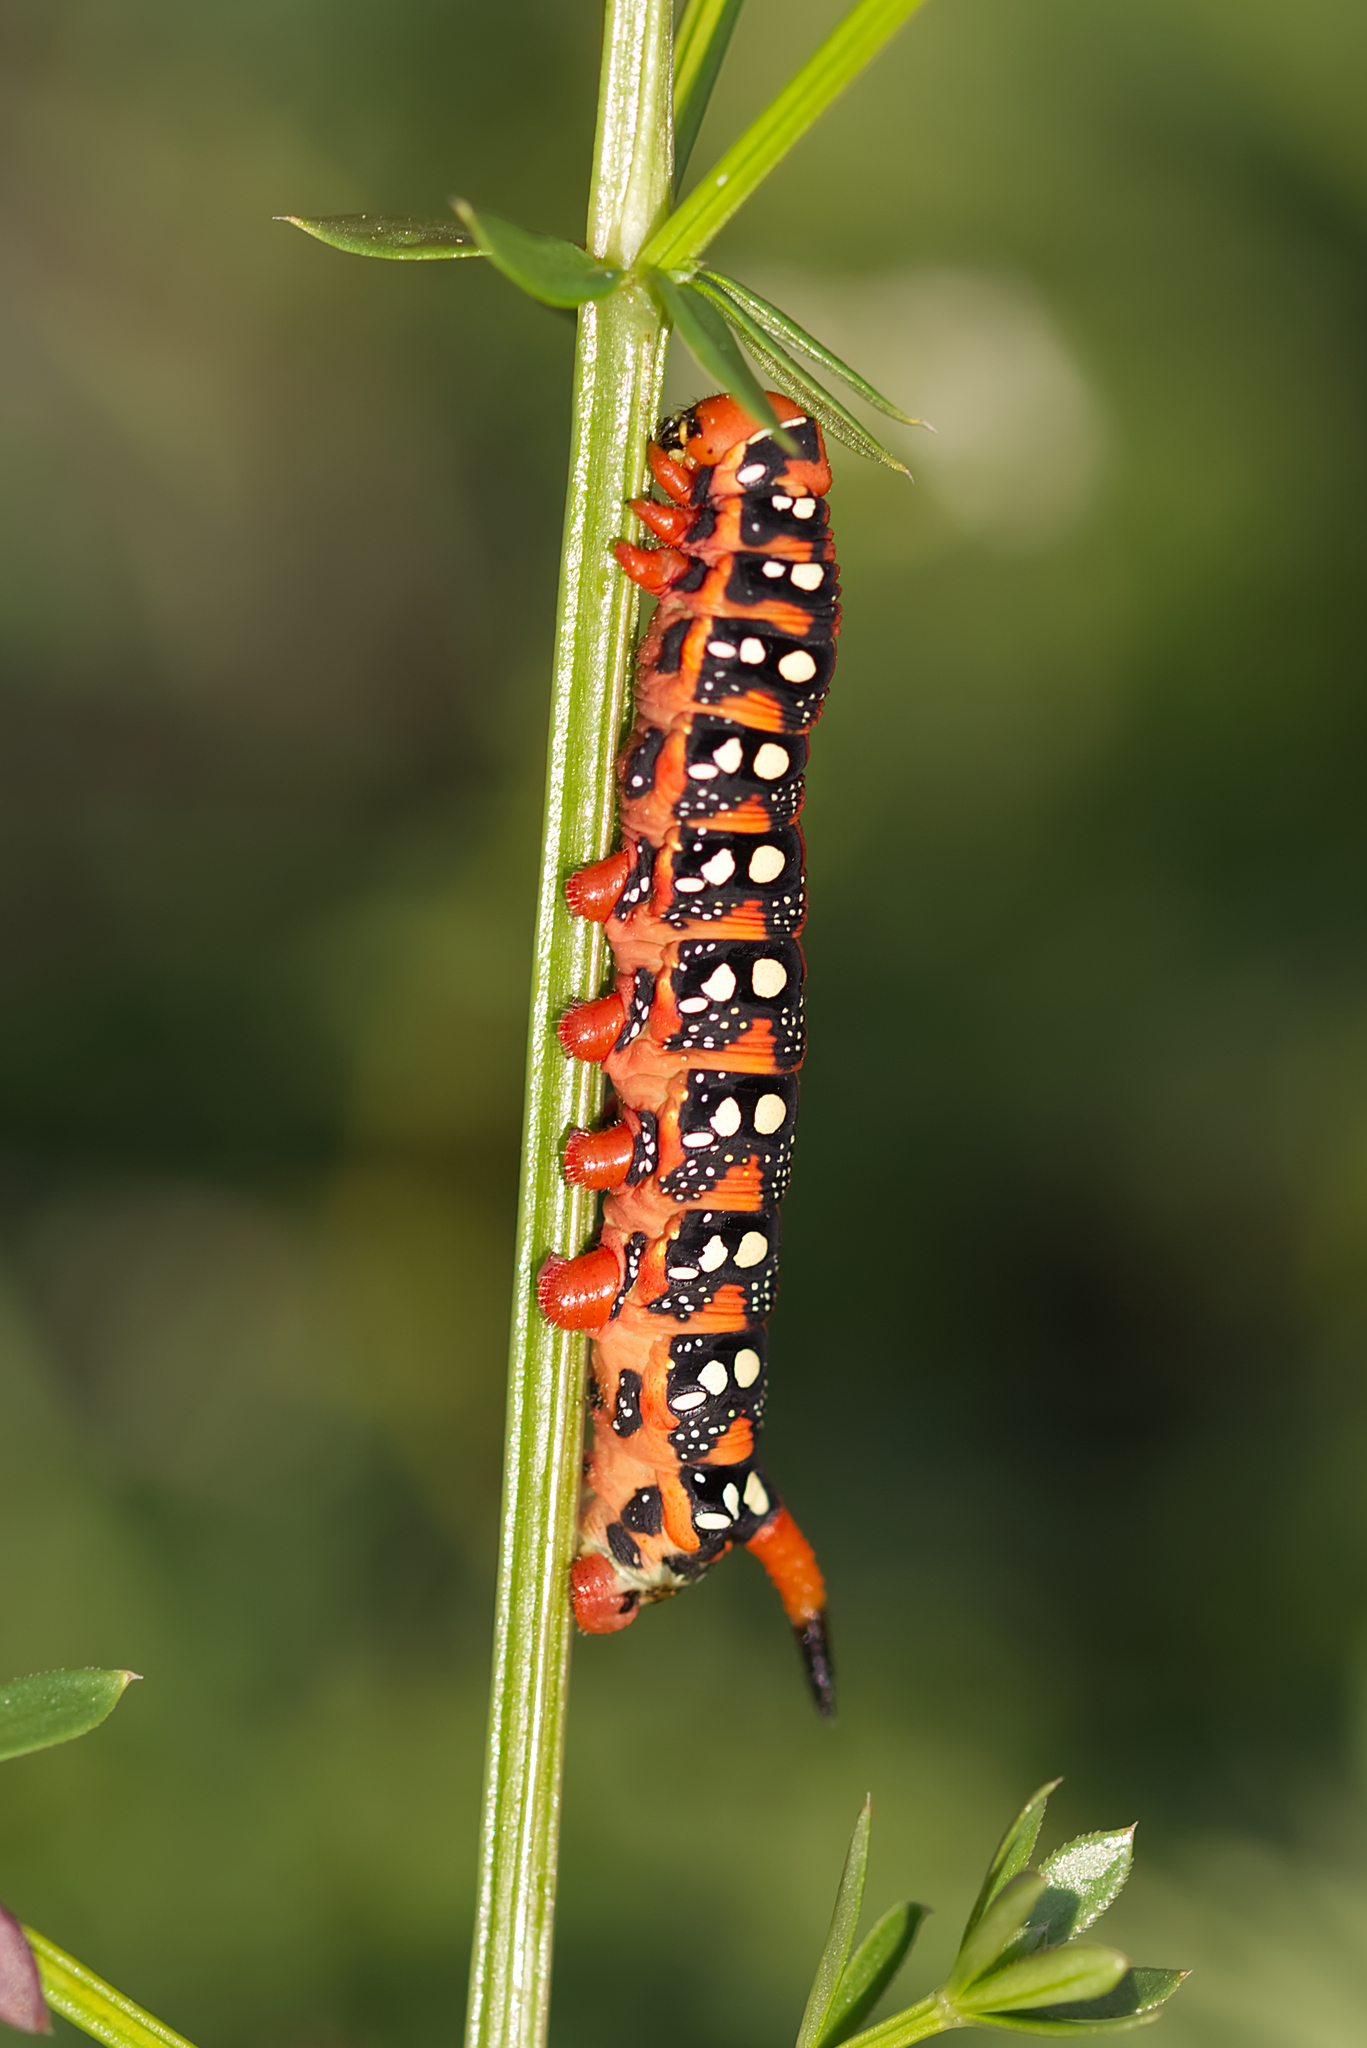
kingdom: Animalia
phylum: Arthropoda
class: Insecta
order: Lepidoptera
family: Sphingidae
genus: Hyles
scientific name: Hyles euphorbiae
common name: Spurge hawk-moth
